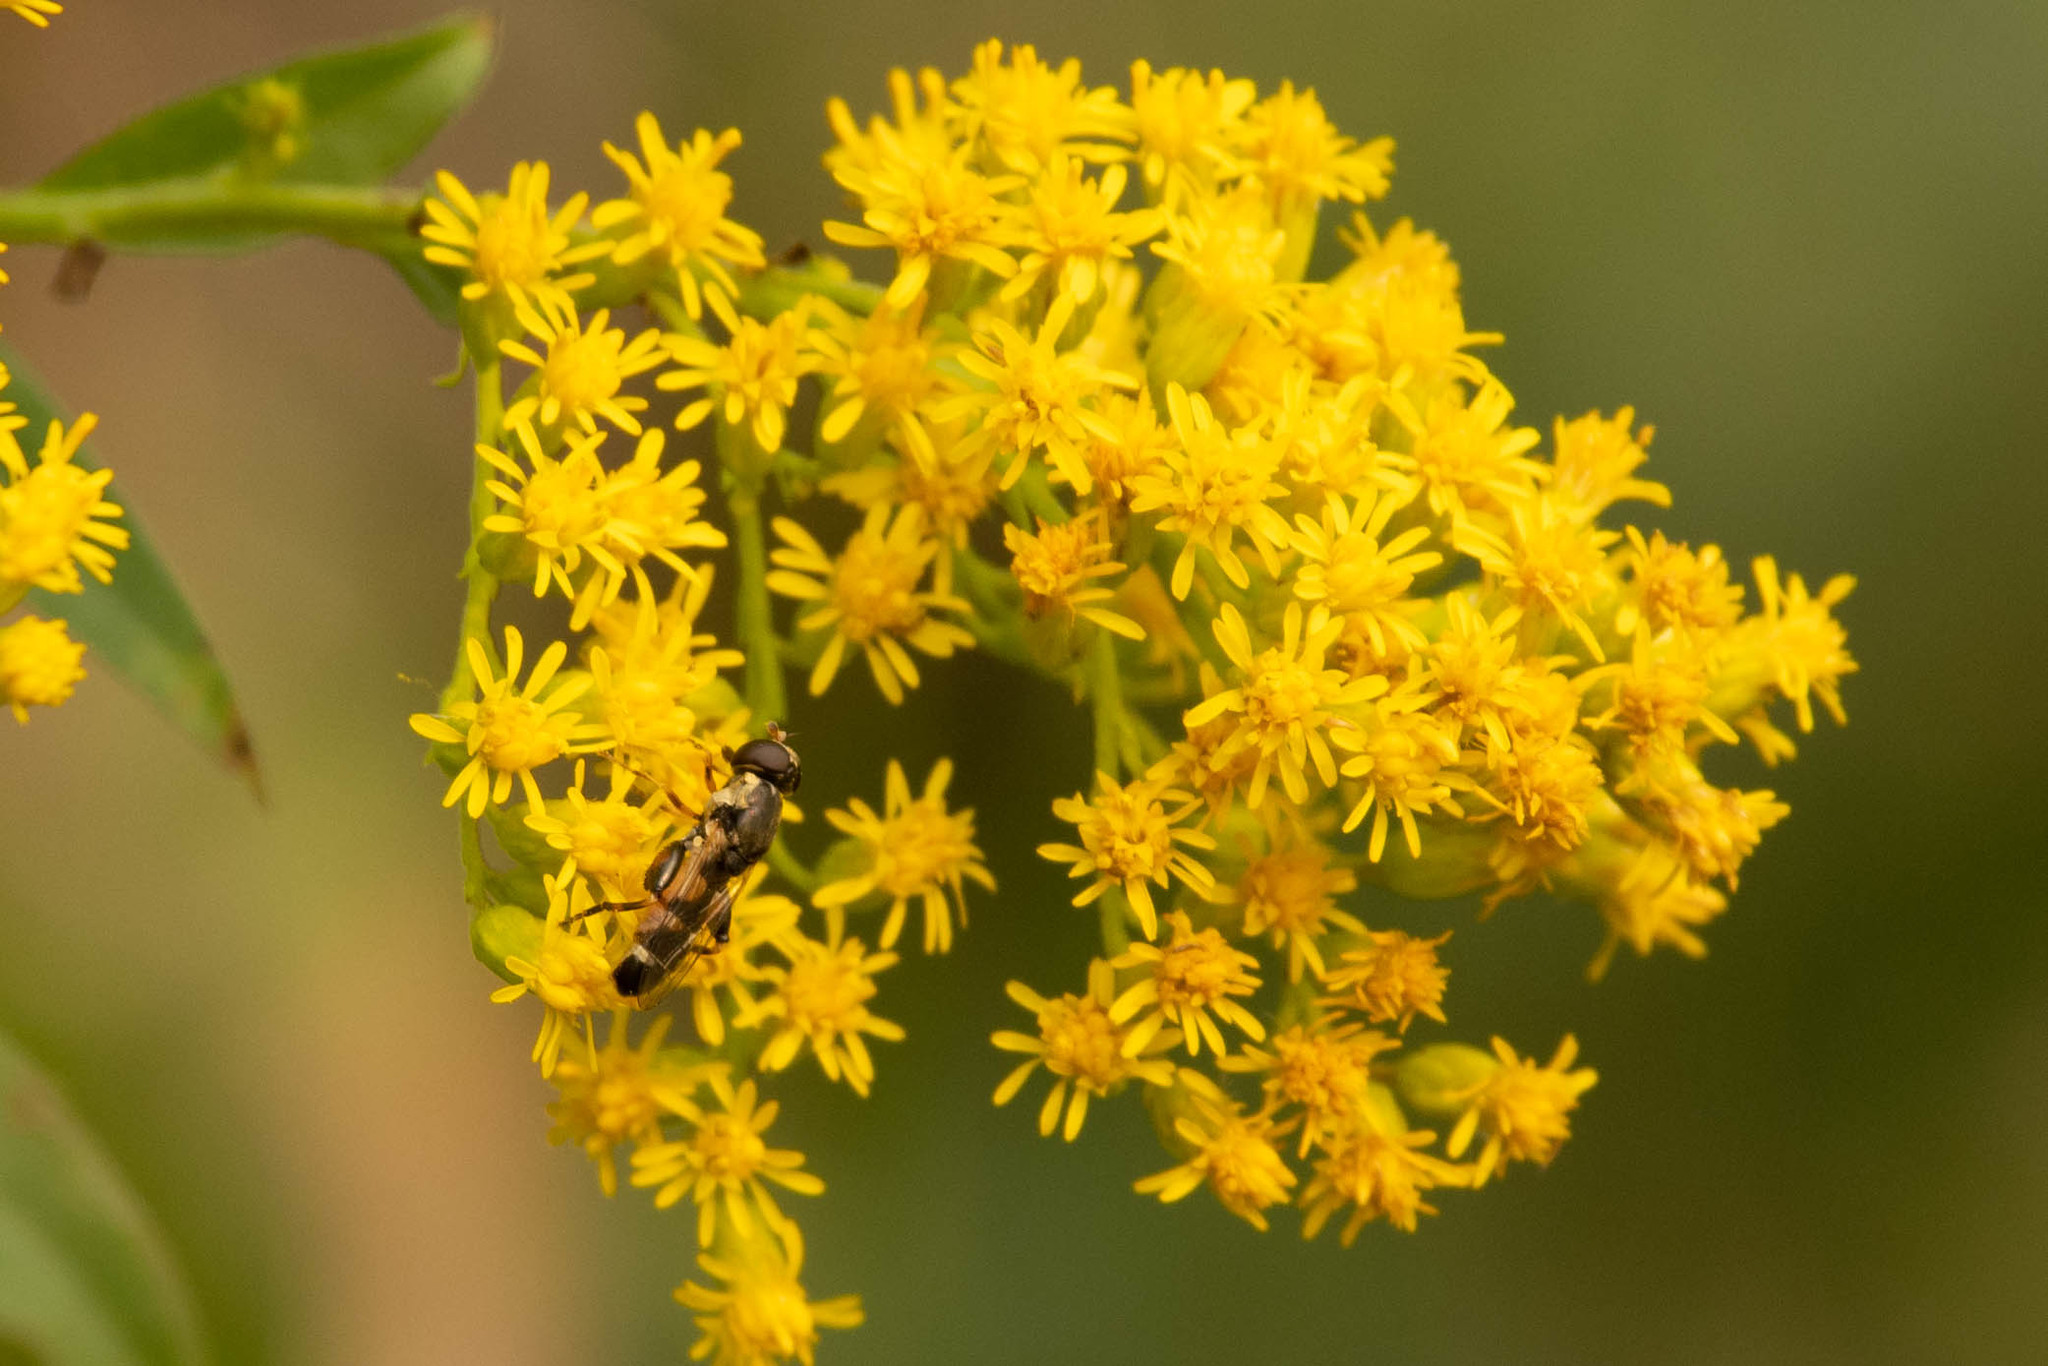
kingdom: Animalia
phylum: Arthropoda
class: Insecta
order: Diptera
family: Syrphidae
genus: Syritta
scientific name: Syritta pipiens
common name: Hover fly
